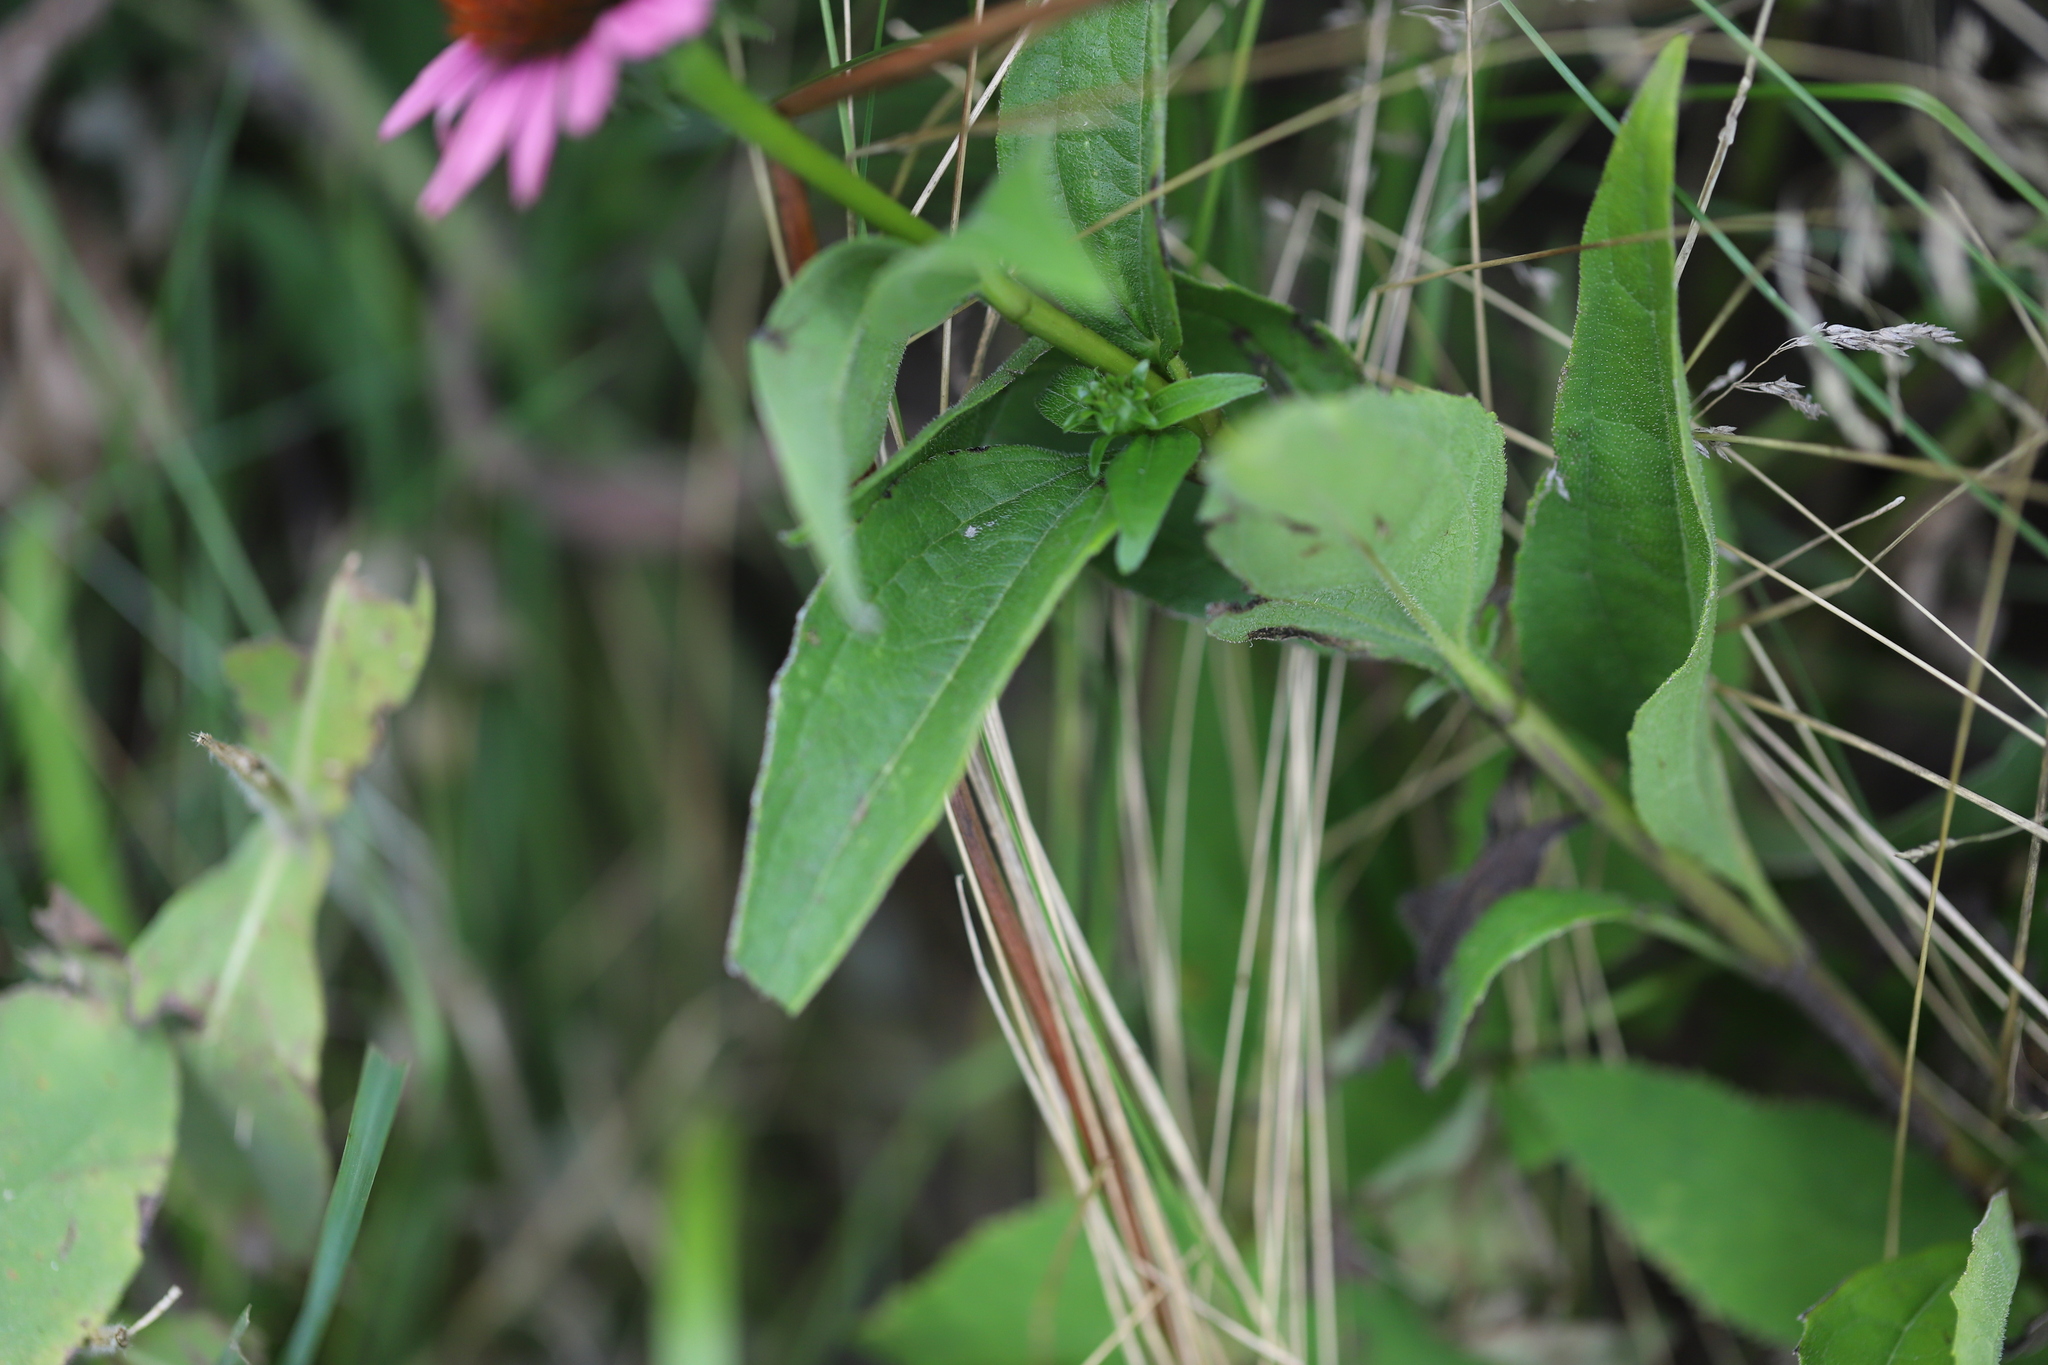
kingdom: Plantae
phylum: Tracheophyta
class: Magnoliopsida
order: Asterales
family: Asteraceae
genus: Echinacea
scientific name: Echinacea purpurea
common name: Broad-leaved purple coneflower
